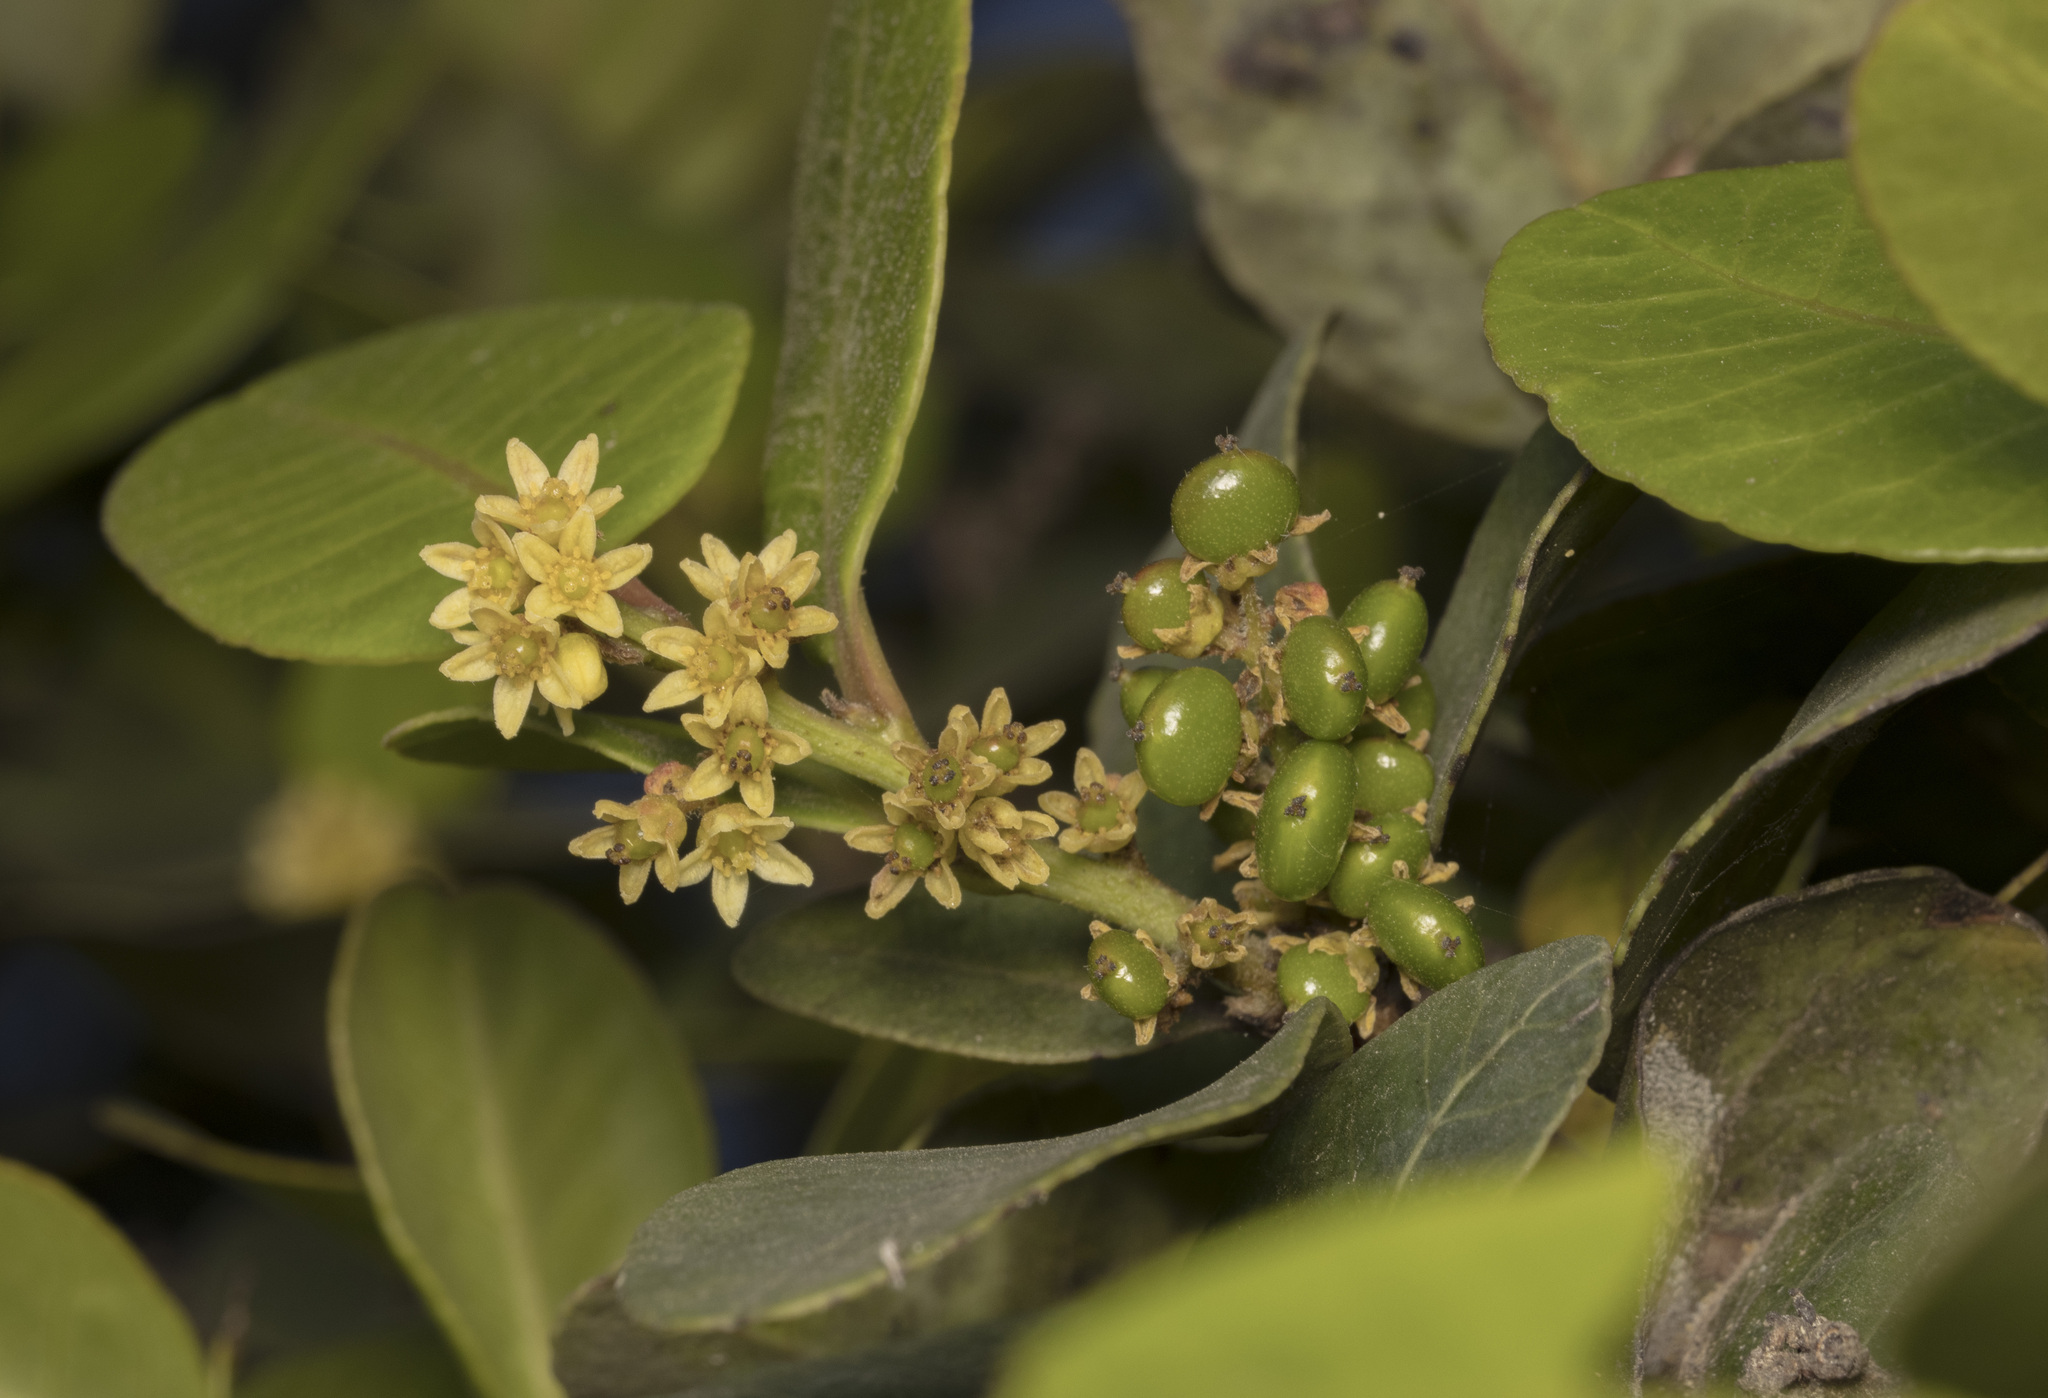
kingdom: Plantae
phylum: Tracheophyta
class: Magnoliopsida
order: Sapindales
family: Anacardiaceae
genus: Lithraea
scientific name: Lithraea caustica
